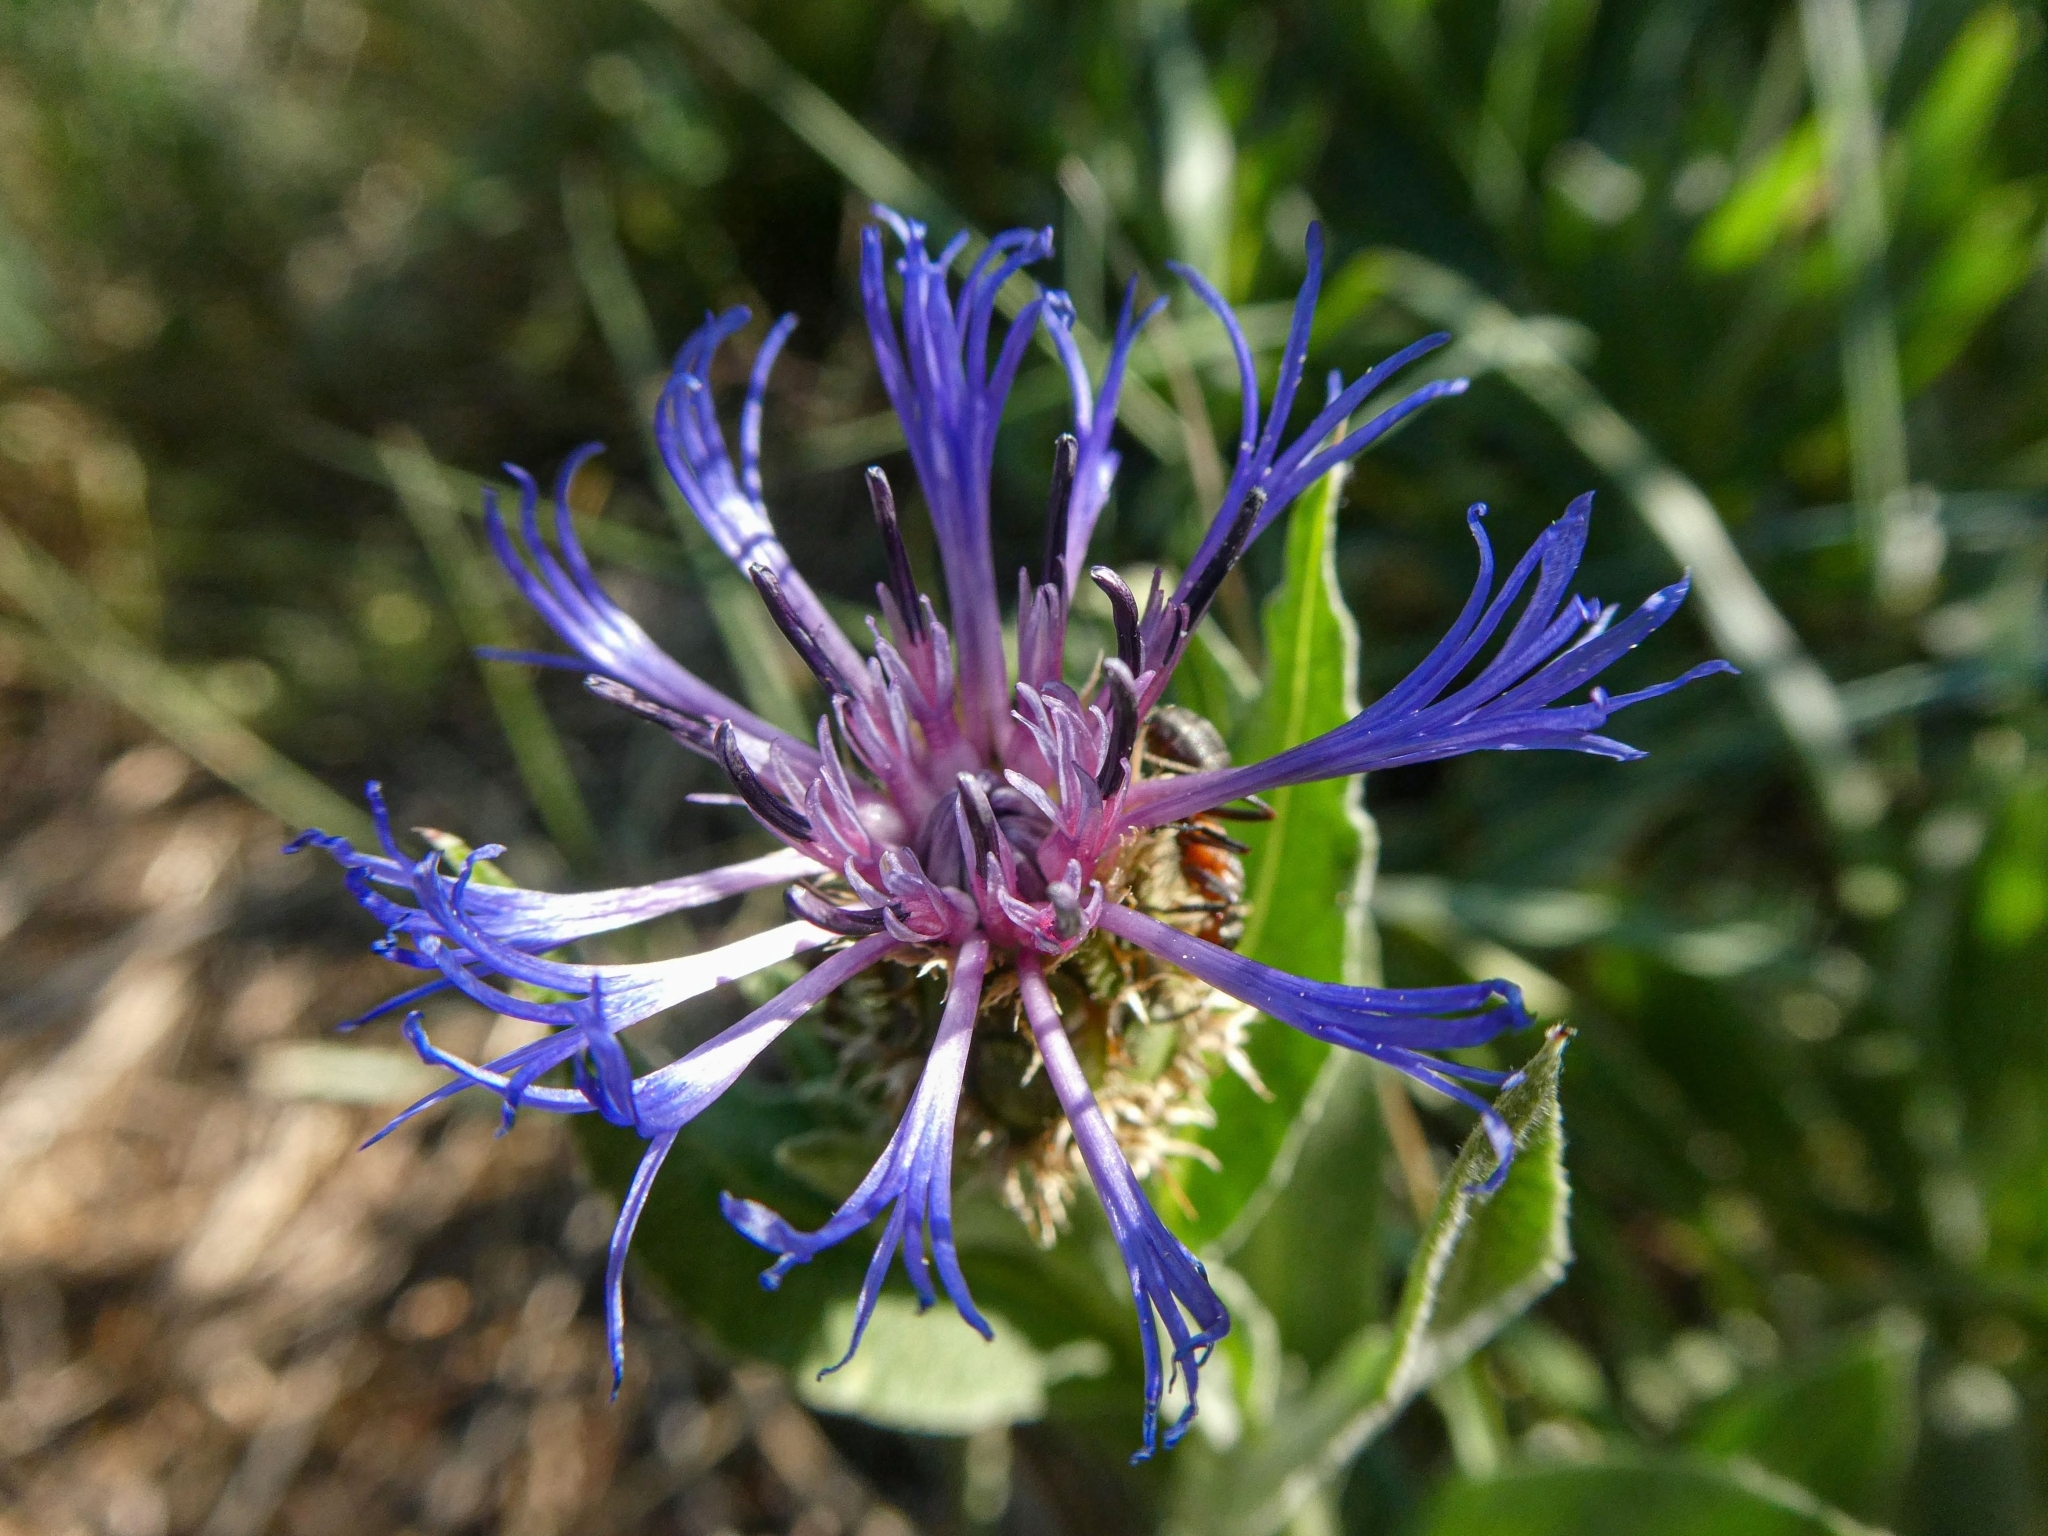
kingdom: Plantae
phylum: Tracheophyta
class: Magnoliopsida
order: Asterales
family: Asteraceae
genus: Centaurea
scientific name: Centaurea triumfettii
